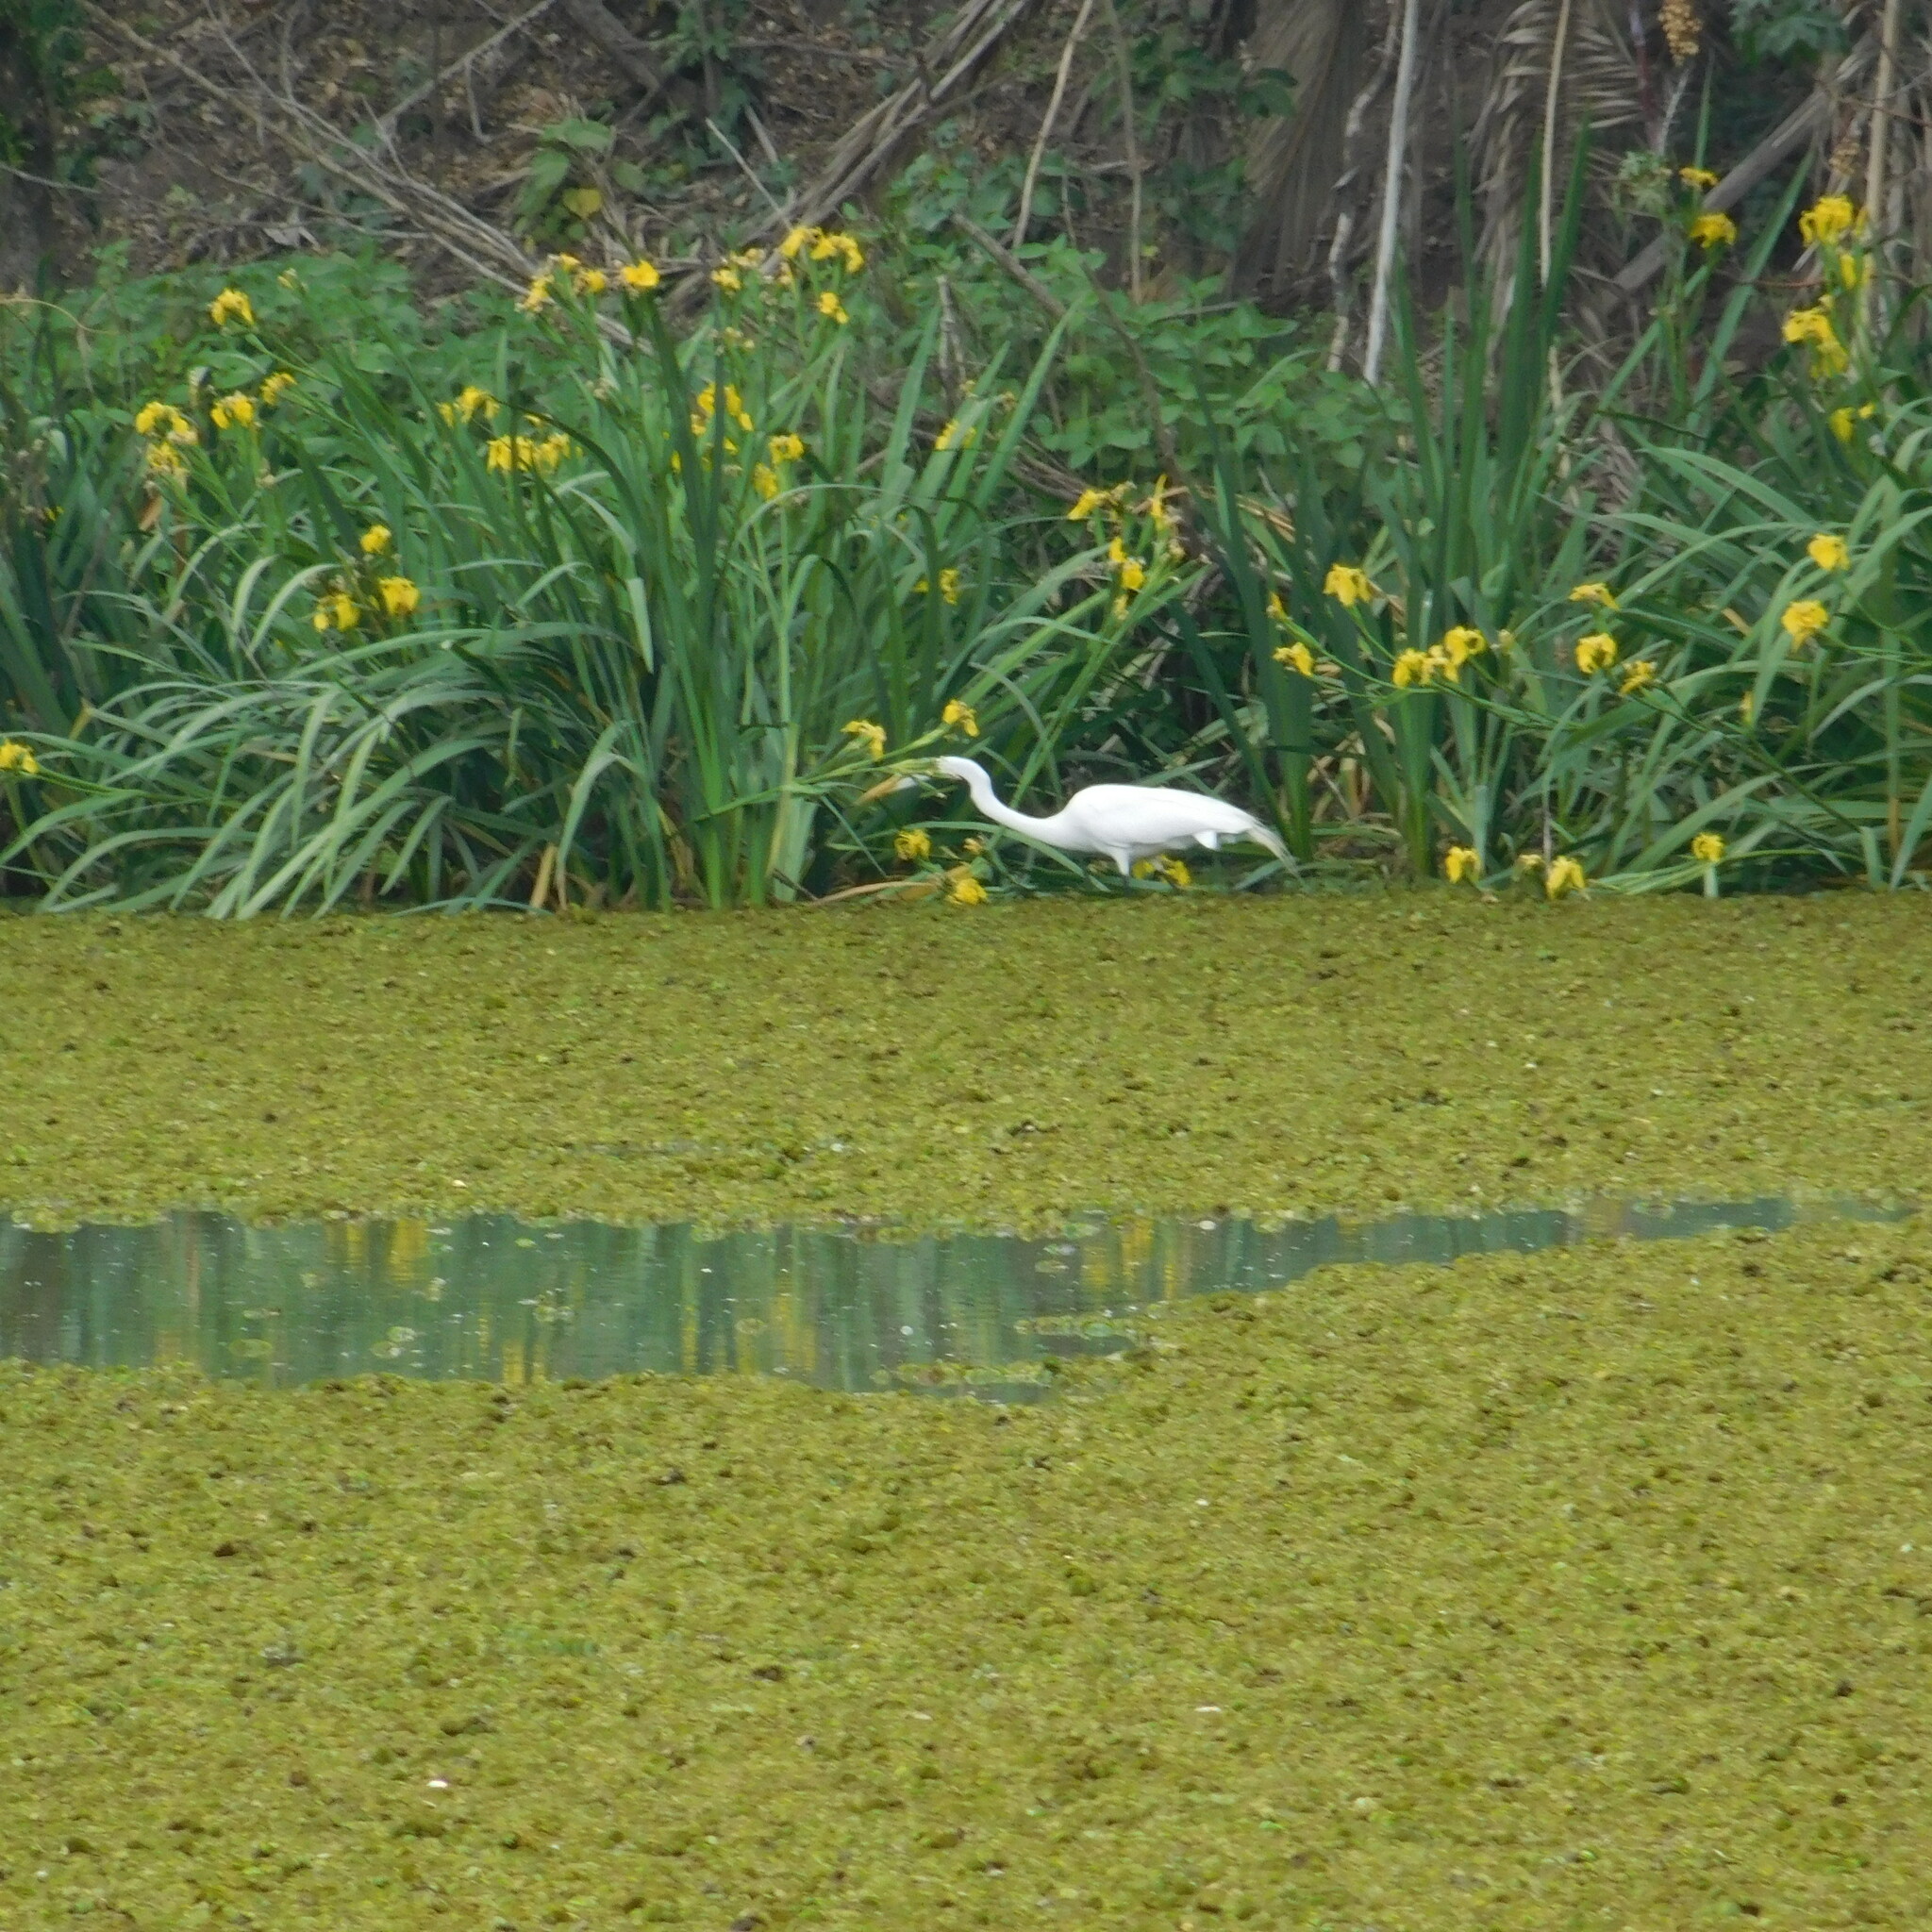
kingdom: Animalia
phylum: Chordata
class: Aves
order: Pelecaniformes
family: Ardeidae
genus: Ardea
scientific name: Ardea alba
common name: Great egret
